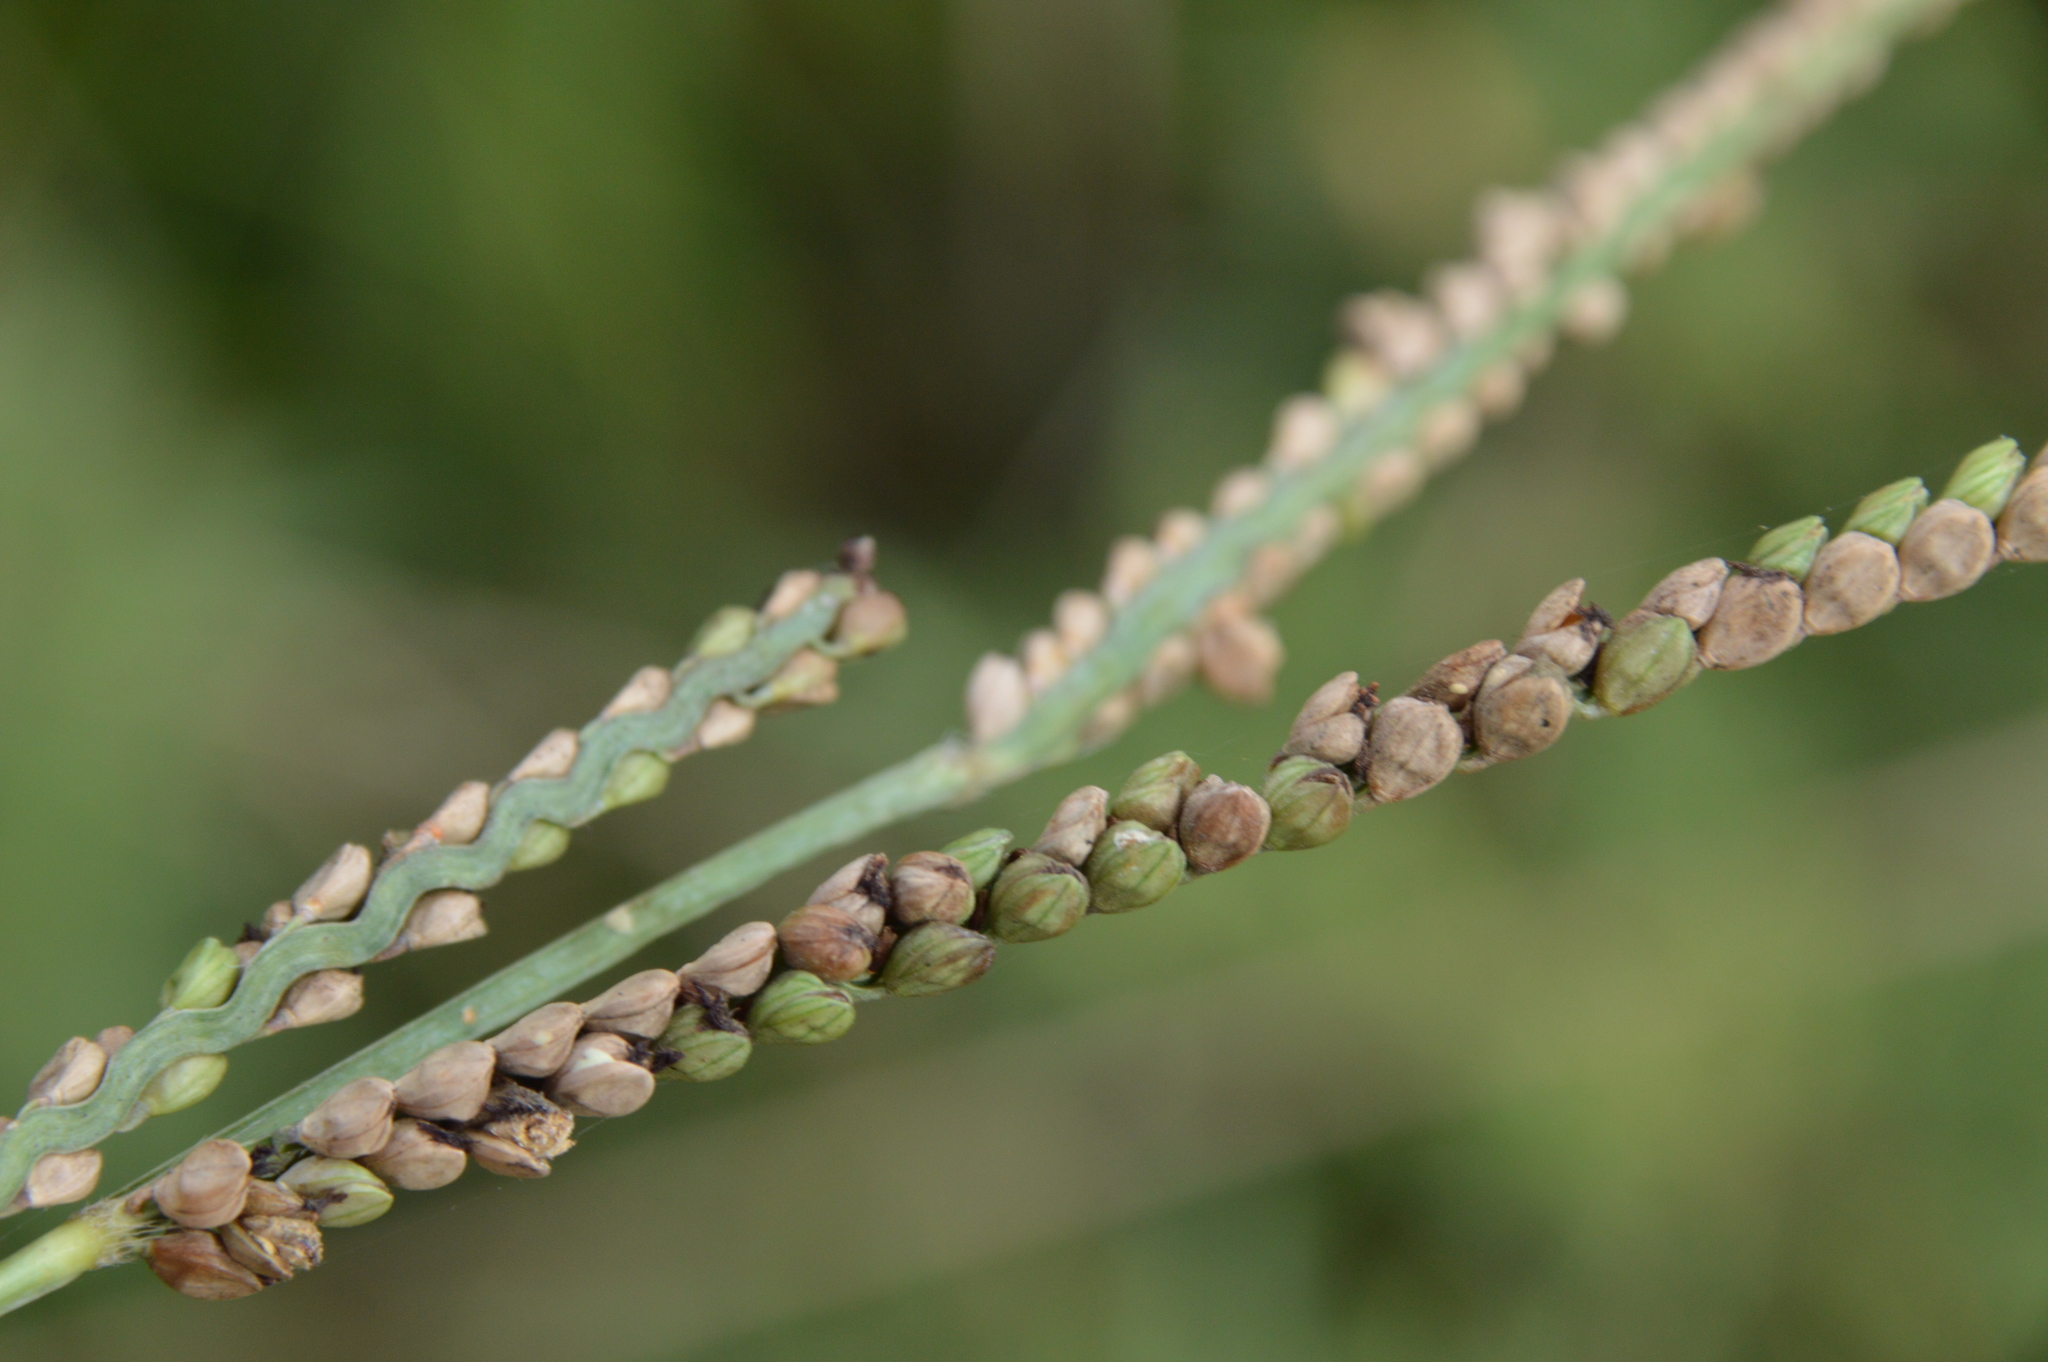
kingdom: Plantae
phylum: Tracheophyta
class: Liliopsida
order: Poales
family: Poaceae
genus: Paspalum
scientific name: Paspalum floridanum
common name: Florida paspalum
